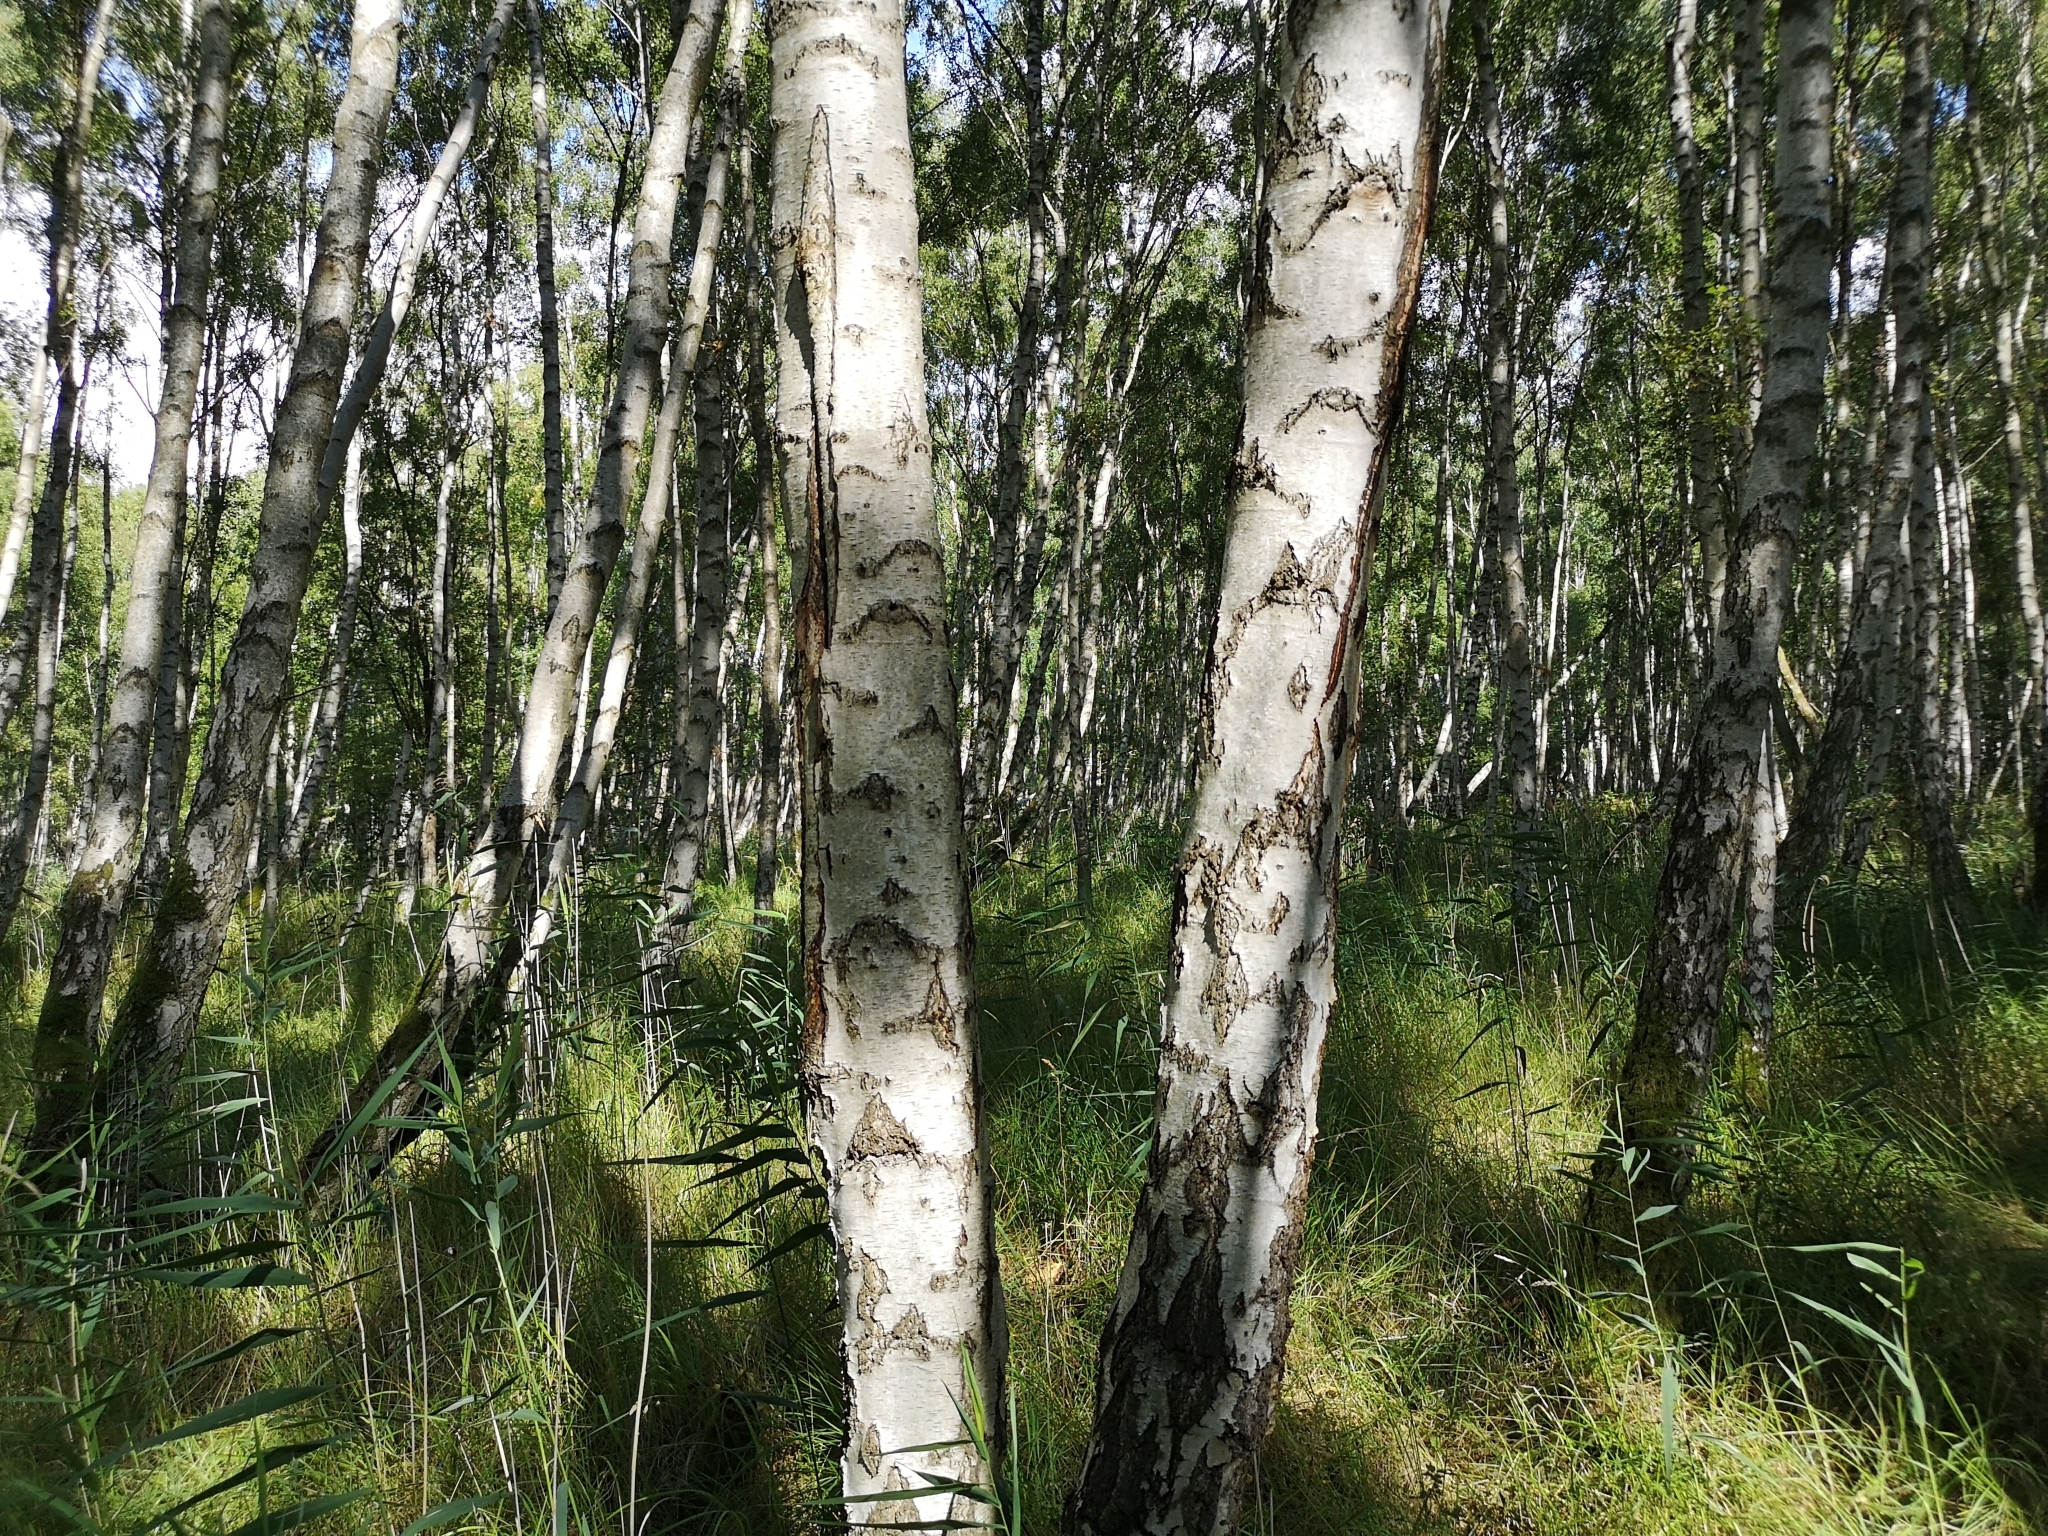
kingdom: Plantae
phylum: Tracheophyta
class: Magnoliopsida
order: Fagales
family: Betulaceae
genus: Betula
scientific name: Betula pendula
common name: Silver birch
